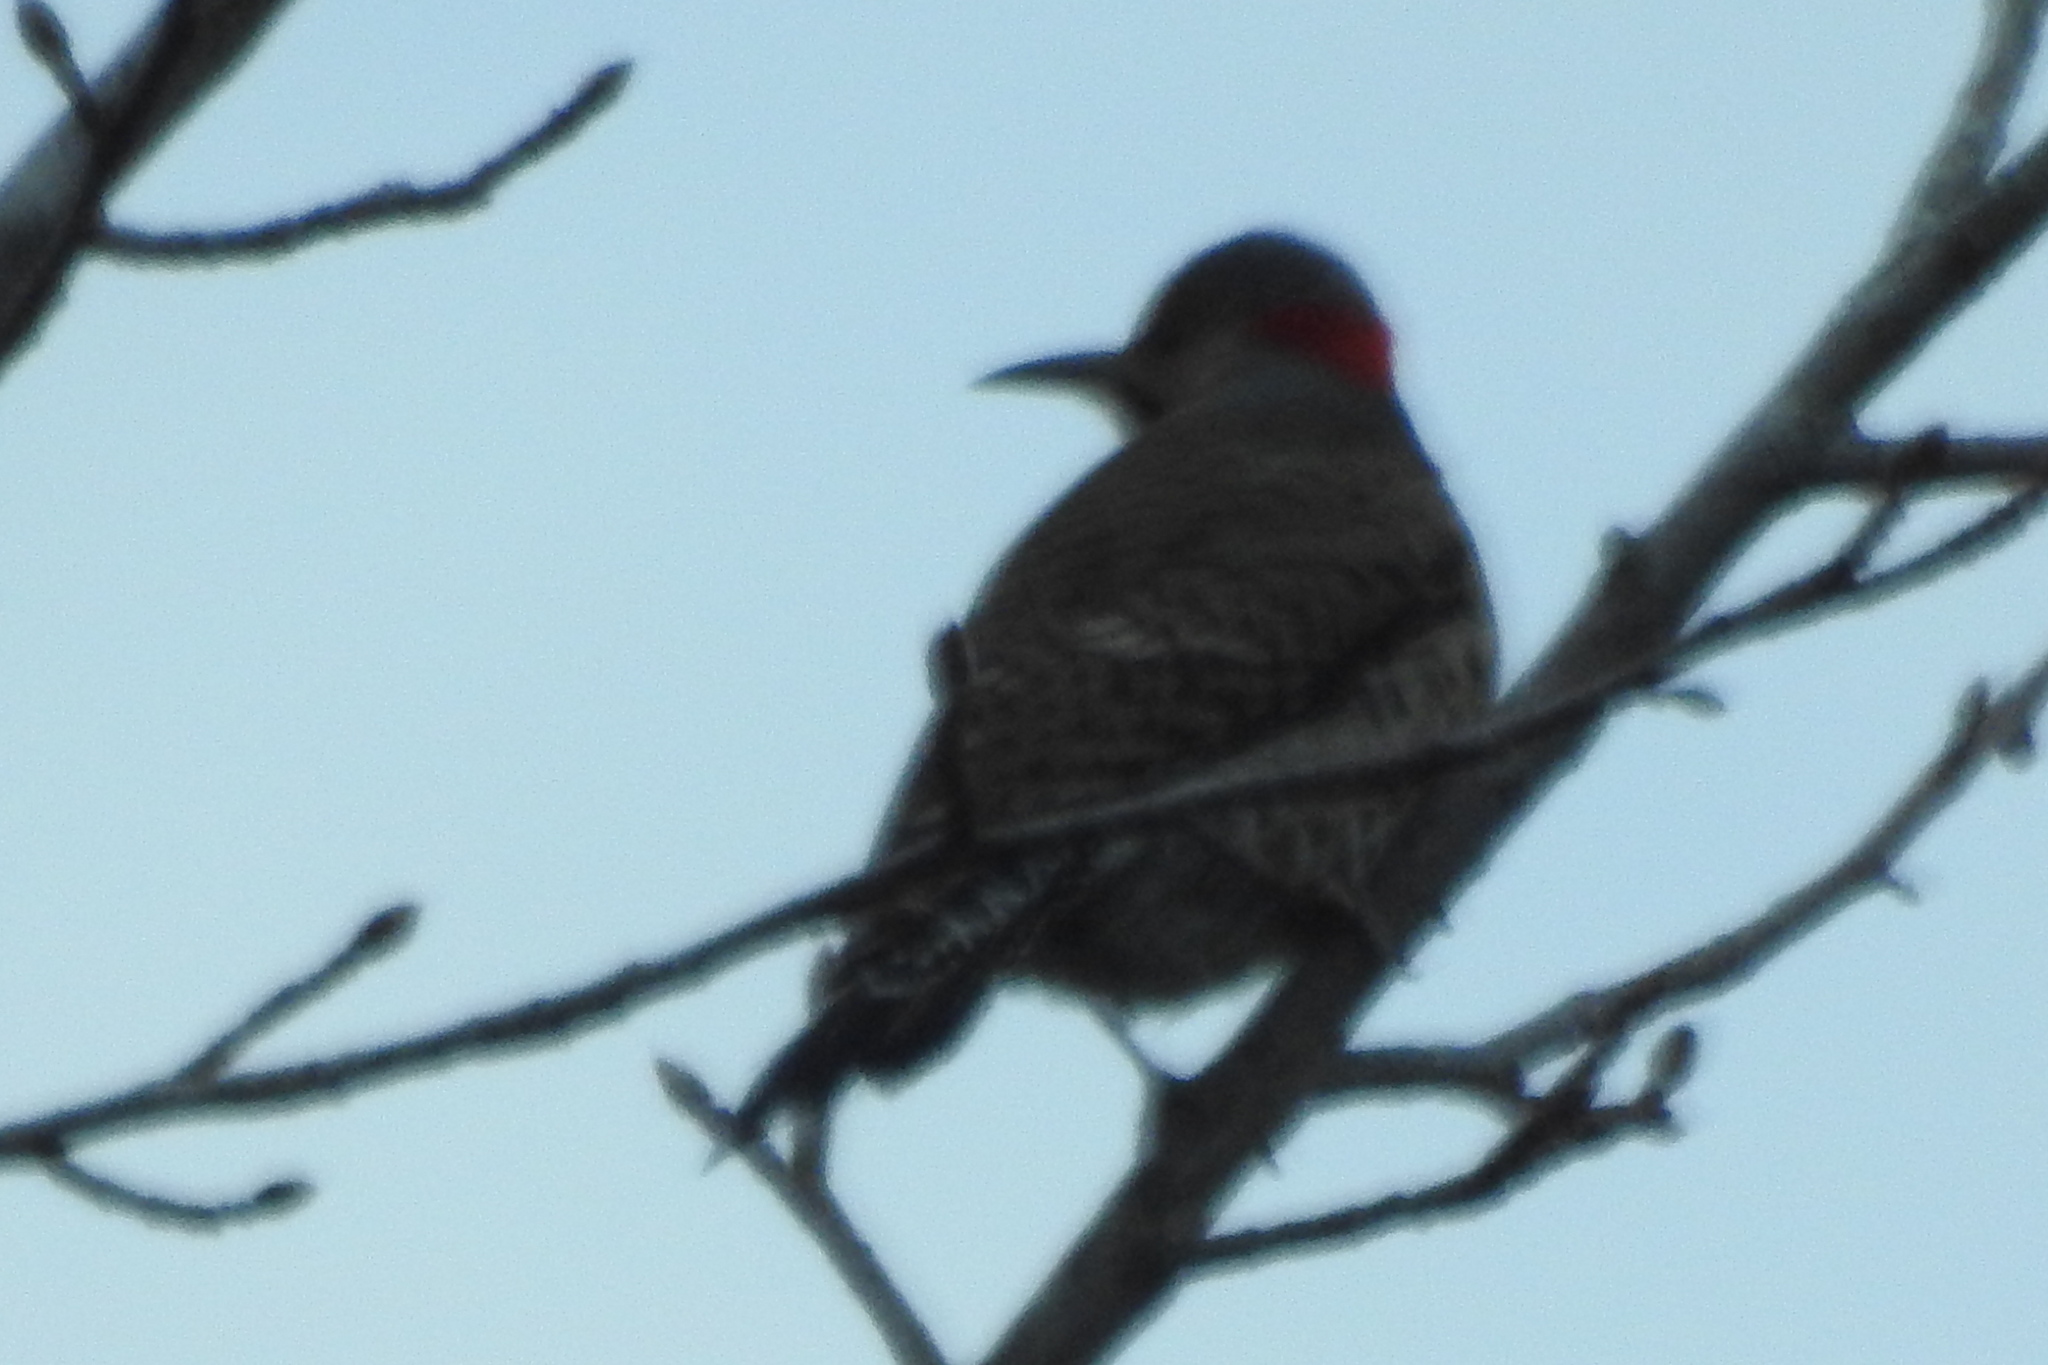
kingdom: Animalia
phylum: Chordata
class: Aves
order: Piciformes
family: Picidae
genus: Colaptes
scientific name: Colaptes auratus
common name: Northern flicker
